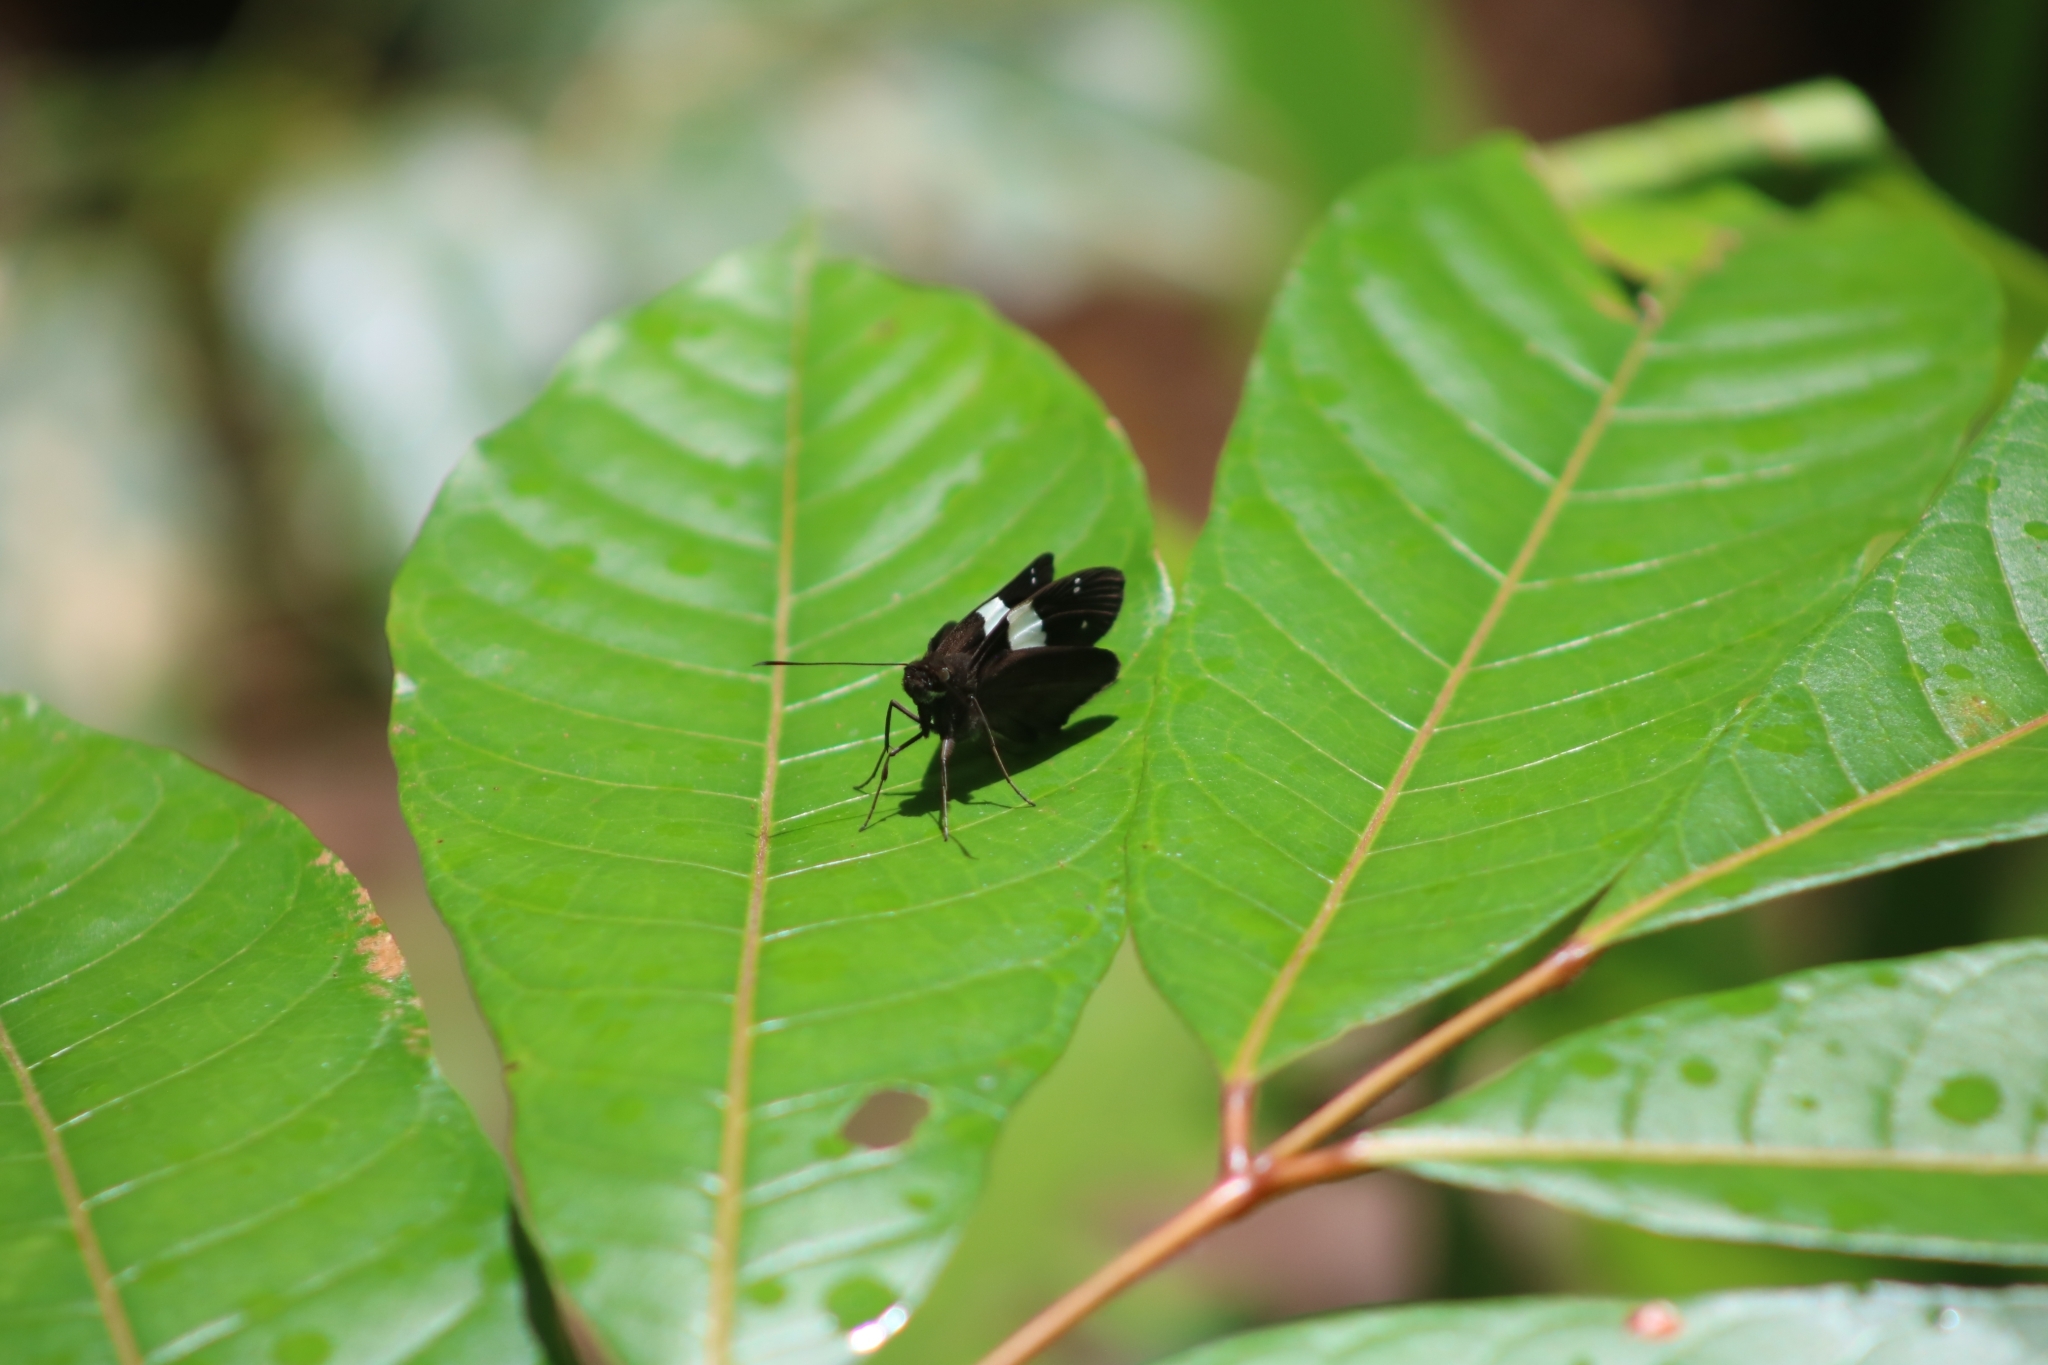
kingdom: Animalia
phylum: Arthropoda
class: Insecta
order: Lepidoptera
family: Hesperiidae
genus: Notocrypta
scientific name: Notocrypta waigensis
